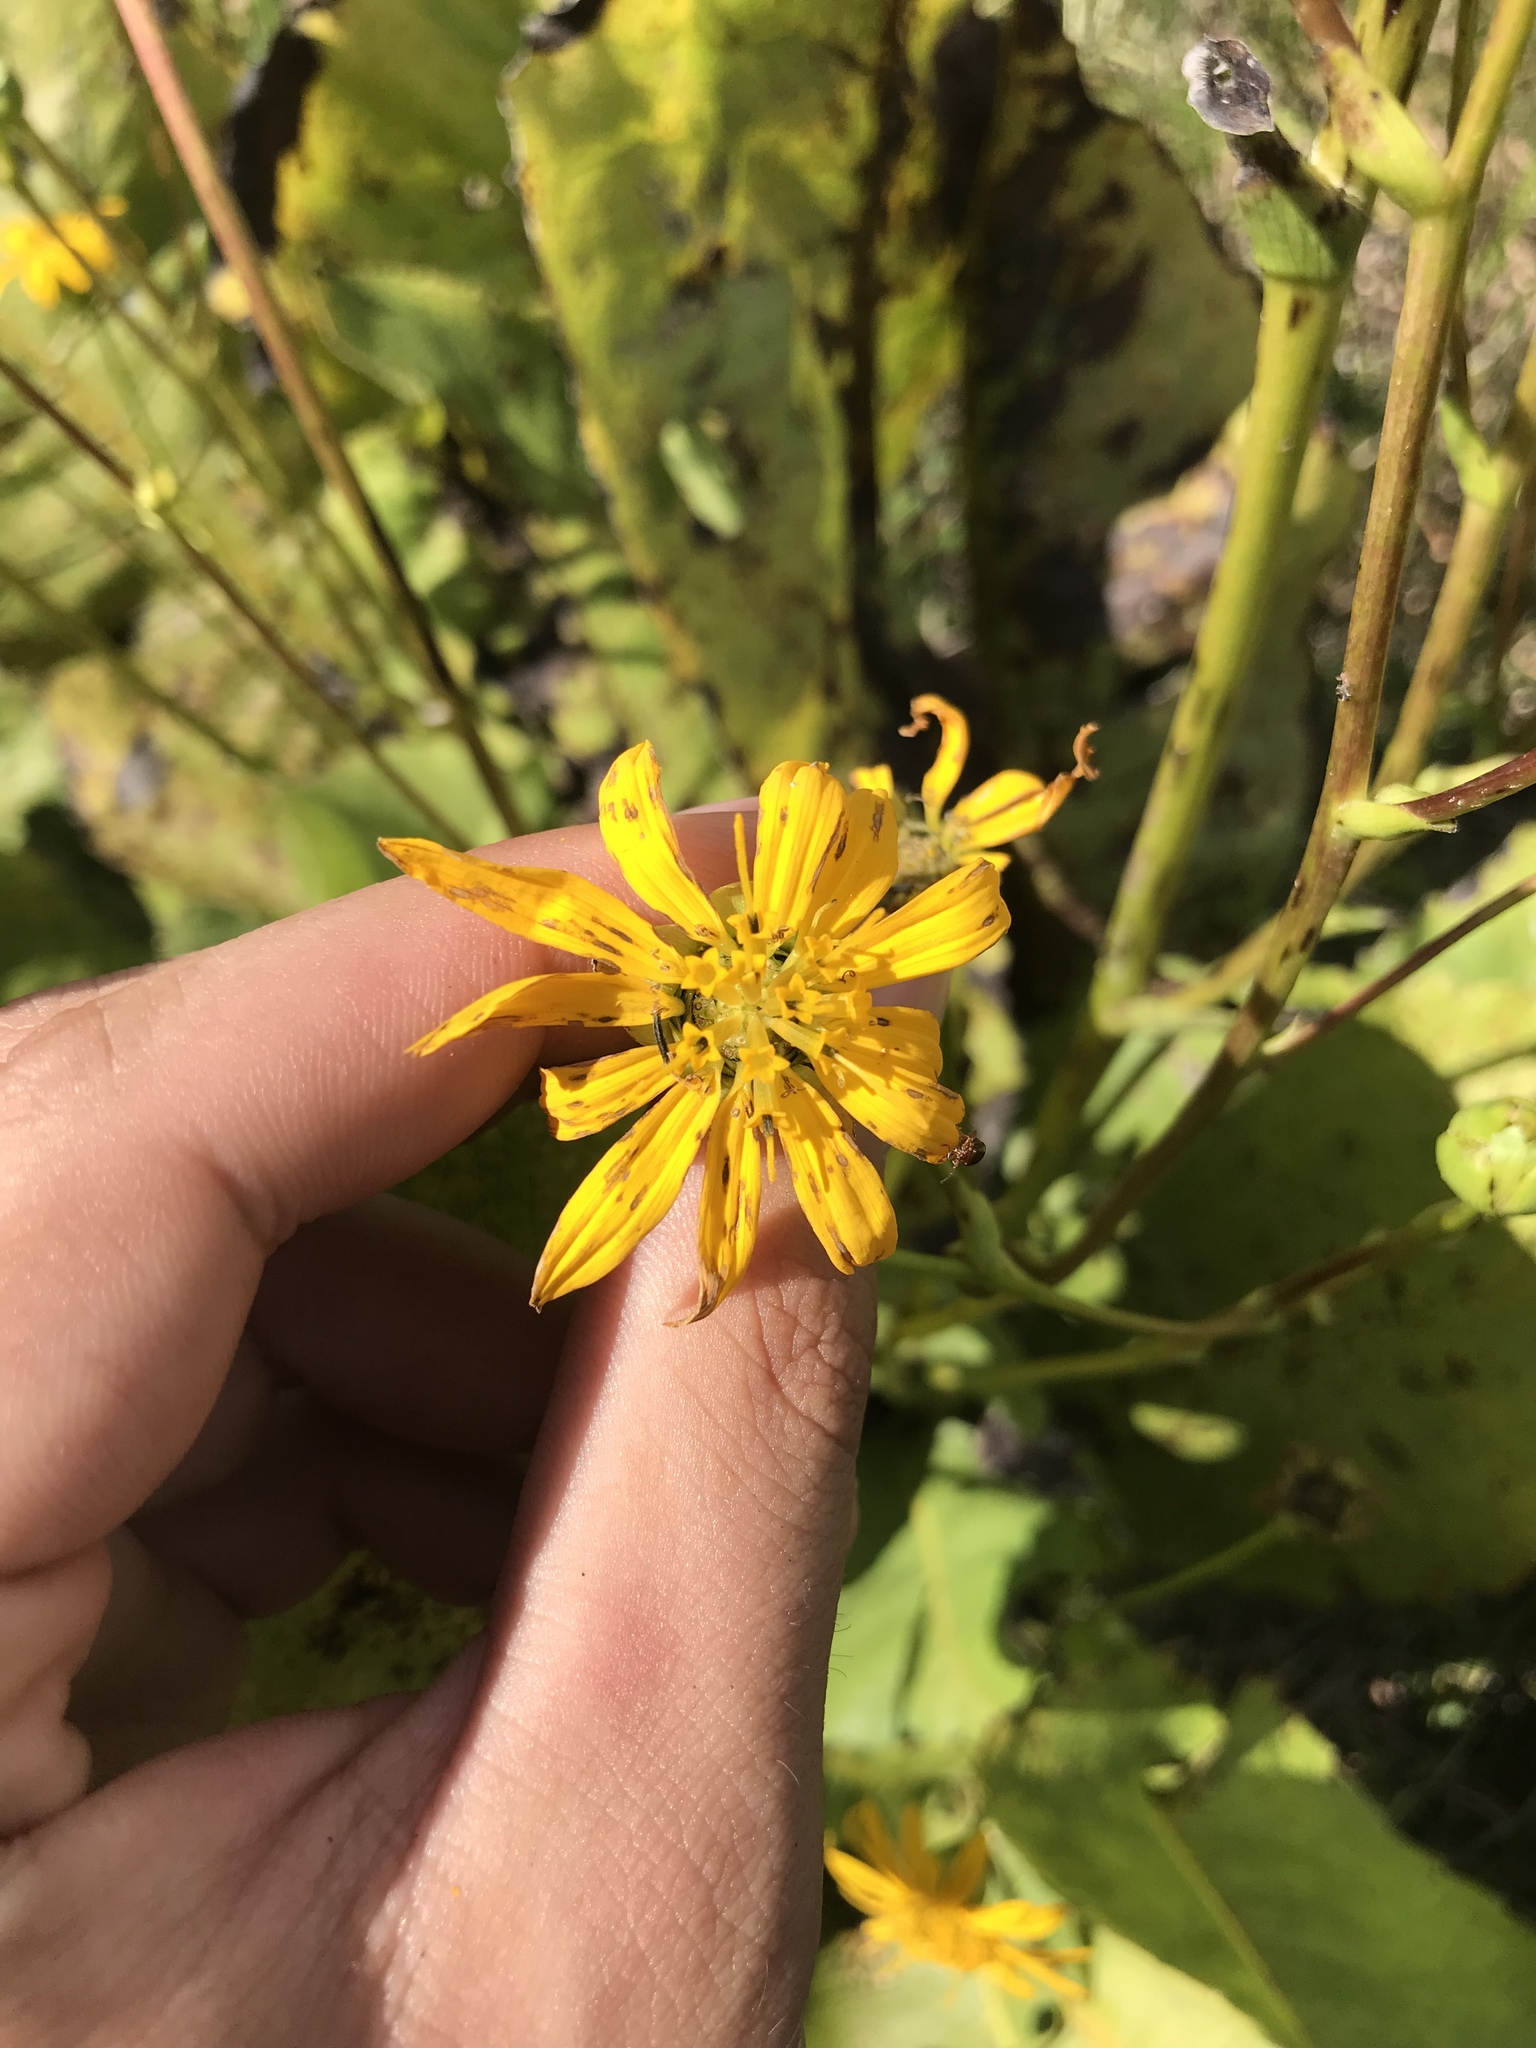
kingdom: Plantae
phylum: Tracheophyta
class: Magnoliopsida
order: Asterales
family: Asteraceae
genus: Silphium
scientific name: Silphium terebinthinaceum
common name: Basal-leaf rosinweed
